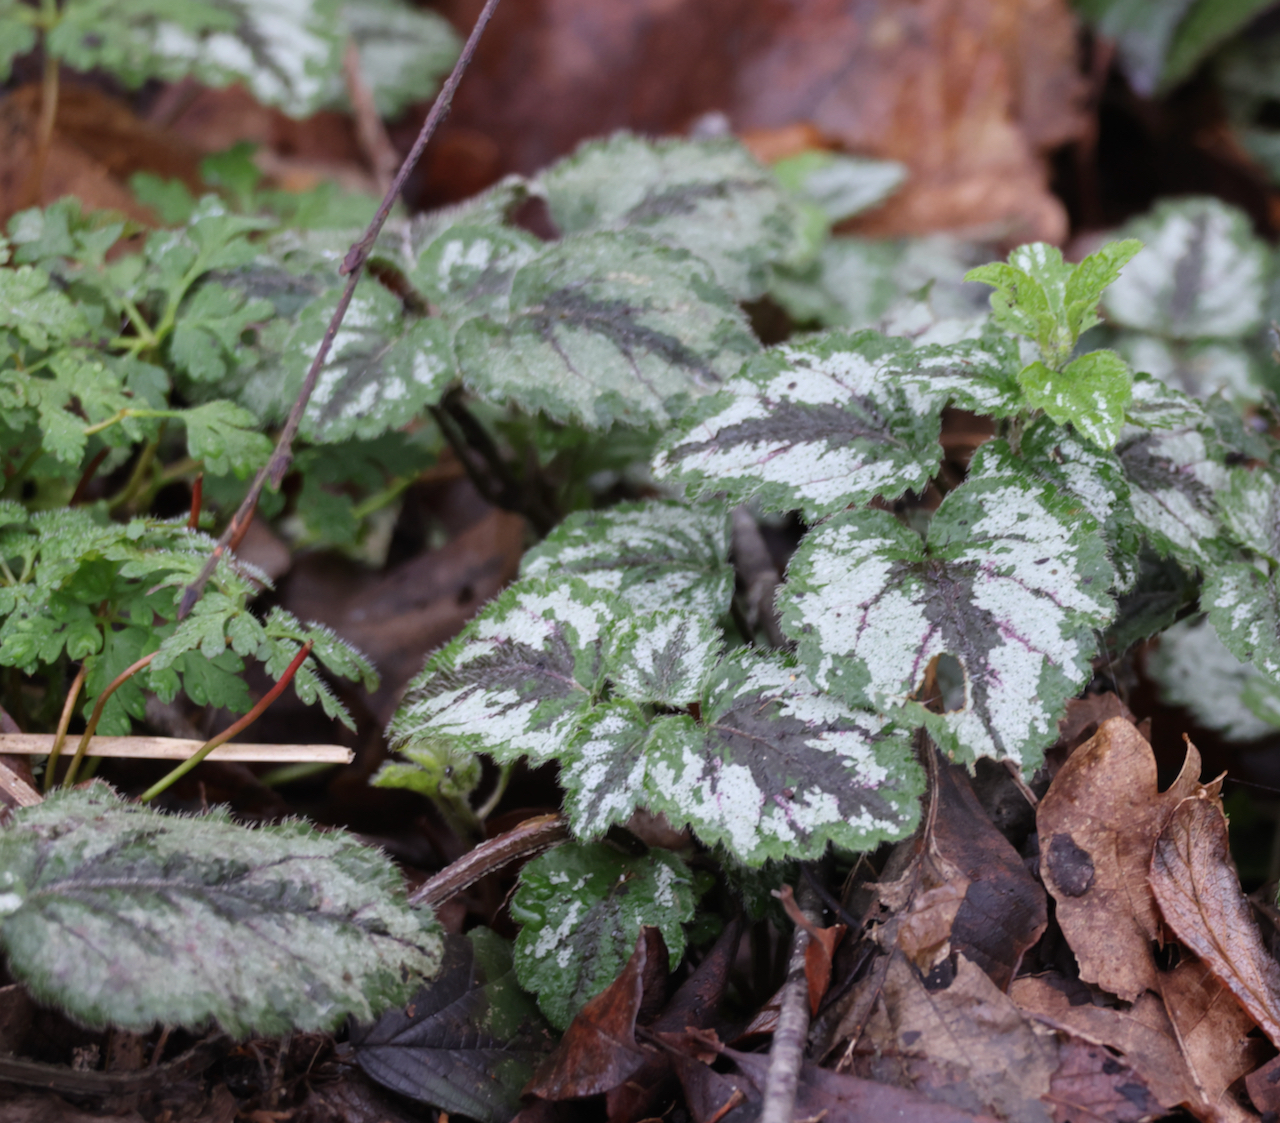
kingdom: Plantae
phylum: Tracheophyta
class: Magnoliopsida
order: Lamiales
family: Lamiaceae
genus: Lamium
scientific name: Lamium galeobdolon
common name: Yellow archangel
